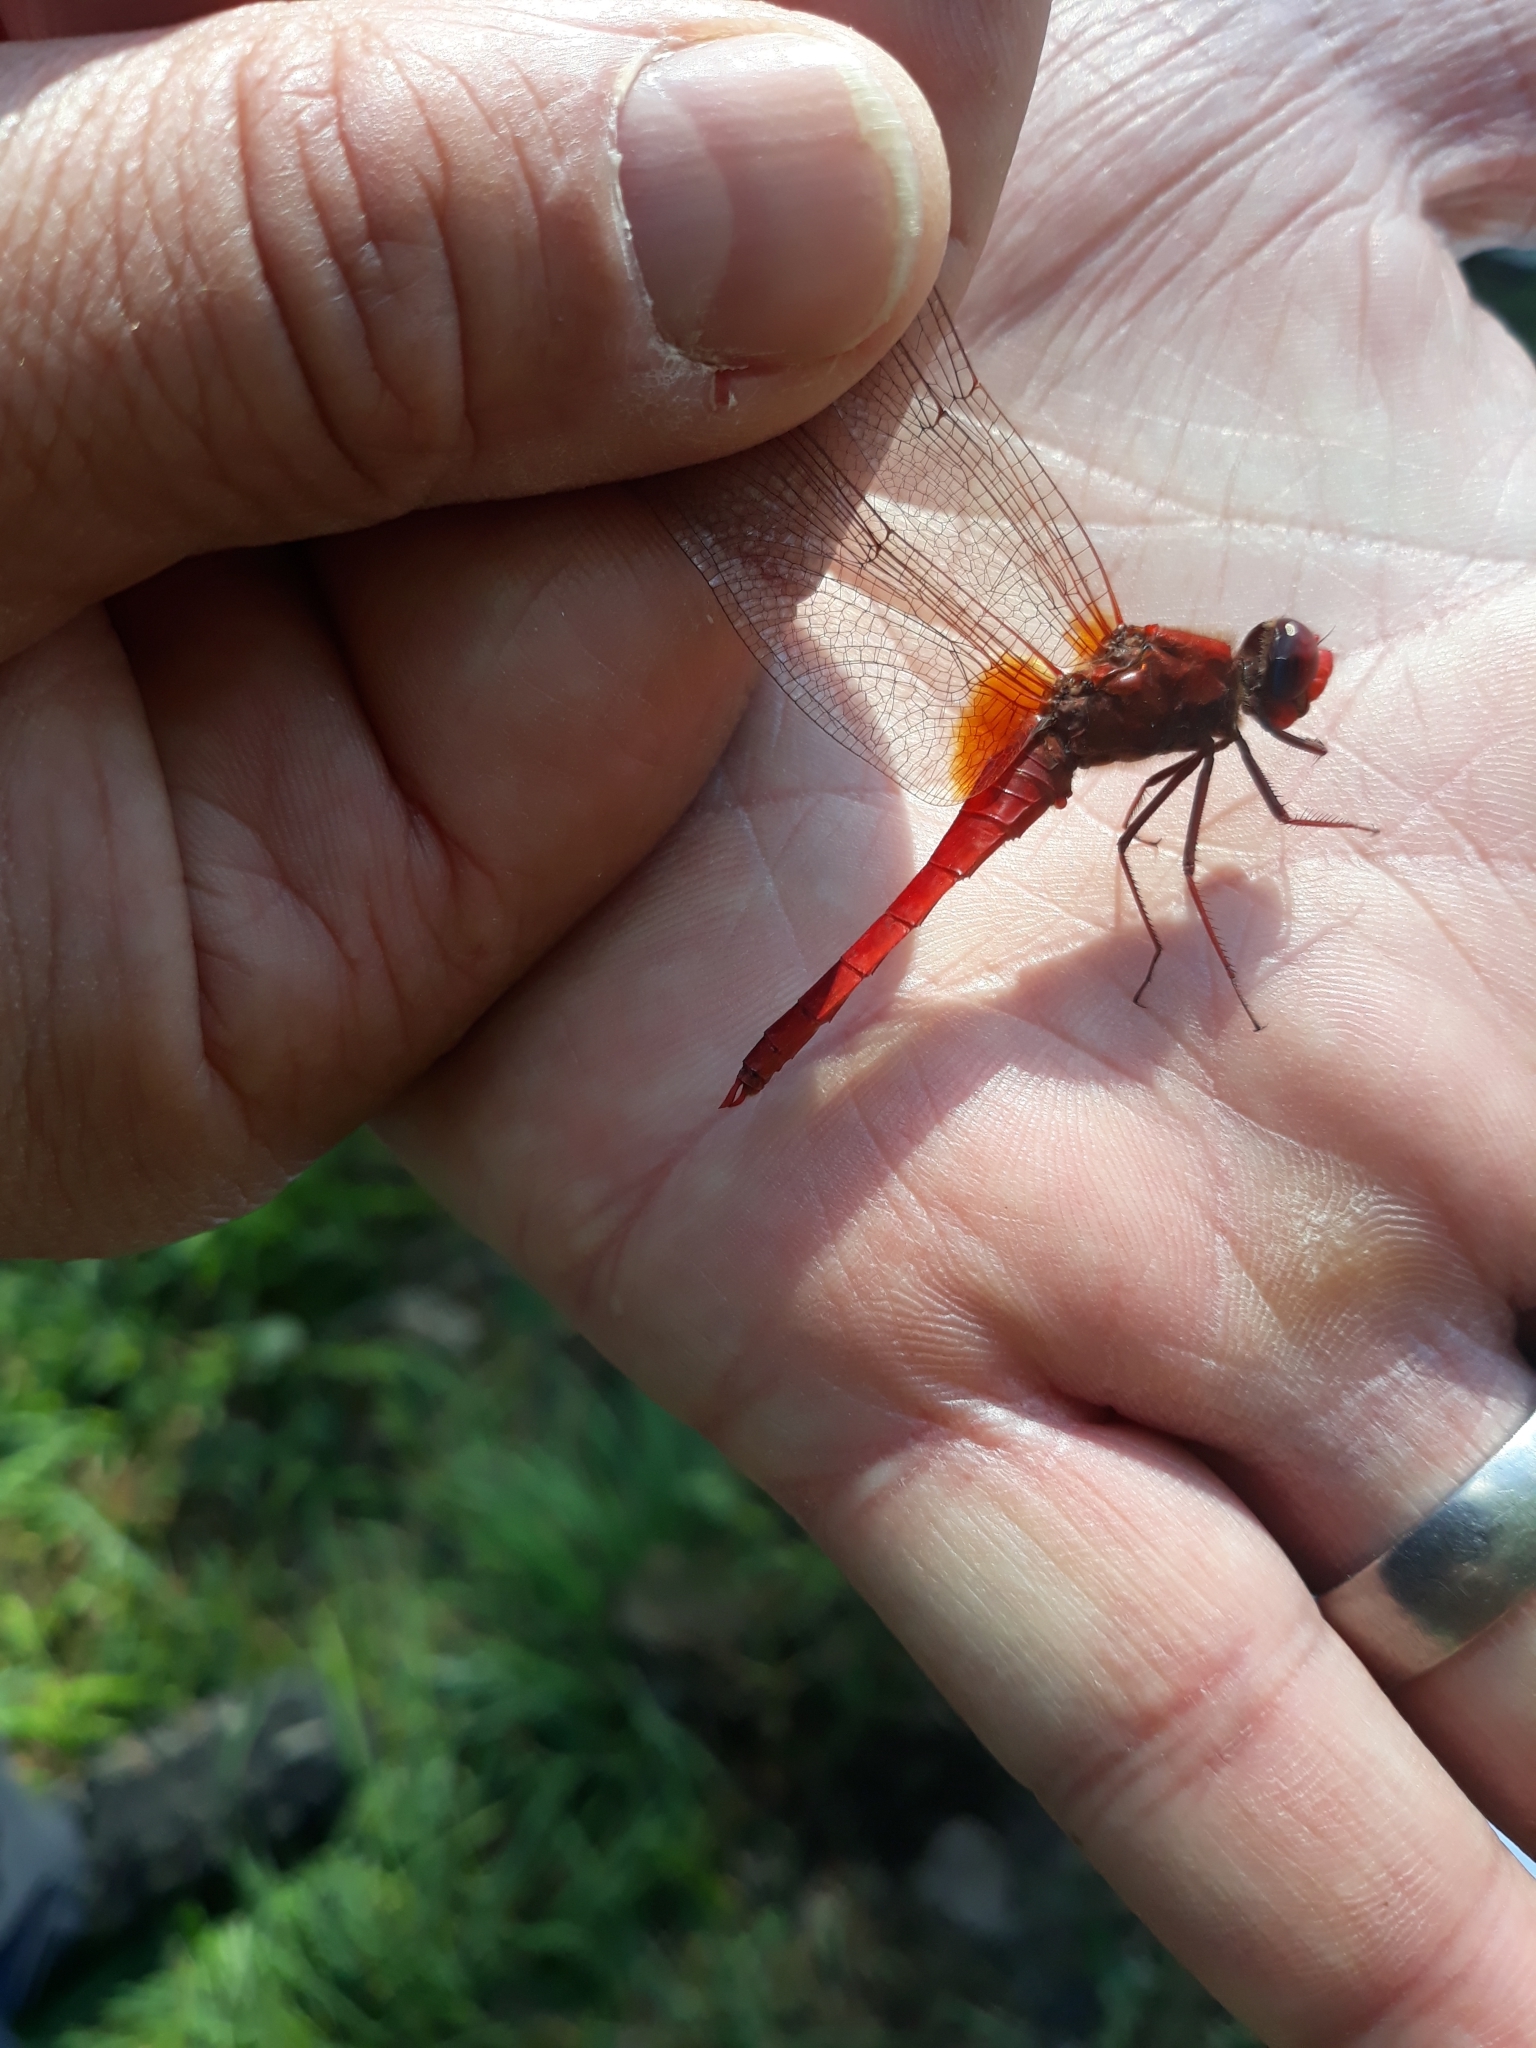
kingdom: Animalia
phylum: Arthropoda
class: Insecta
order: Odonata
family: Libellulidae
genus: Crocothemis
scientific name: Crocothemis erythraea
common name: Scarlet dragonfly
